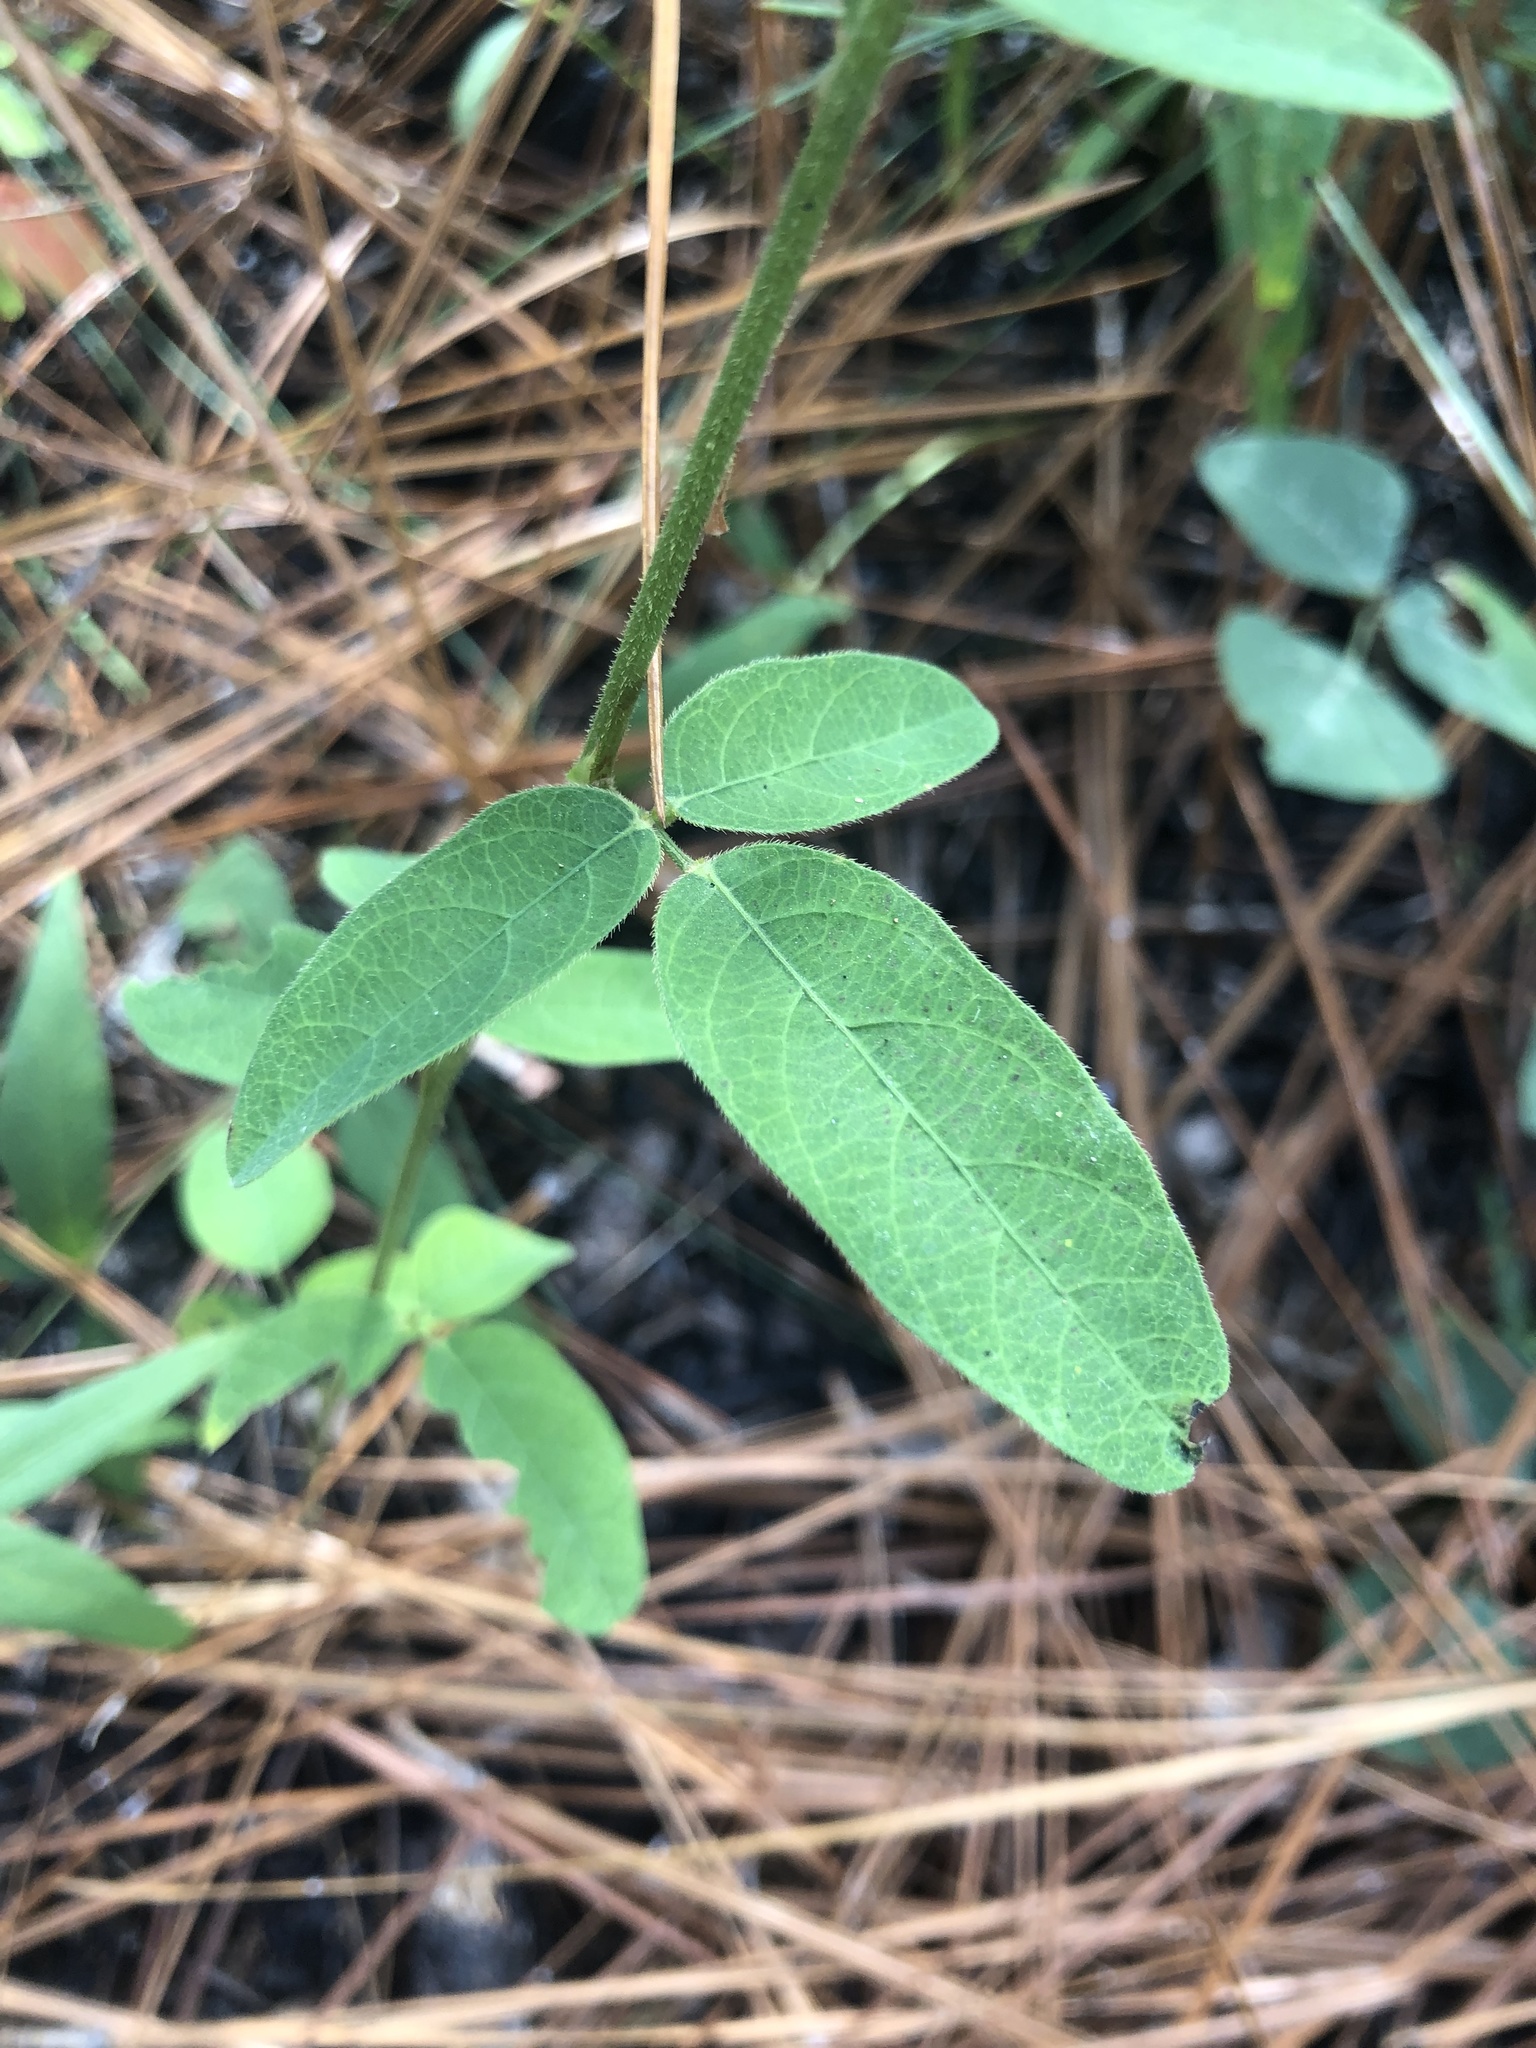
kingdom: Plantae
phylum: Tracheophyta
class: Magnoliopsida
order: Fabales
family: Fabaceae
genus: Desmodium
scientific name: Desmodium obtusum
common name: Stiff tick trefoil
